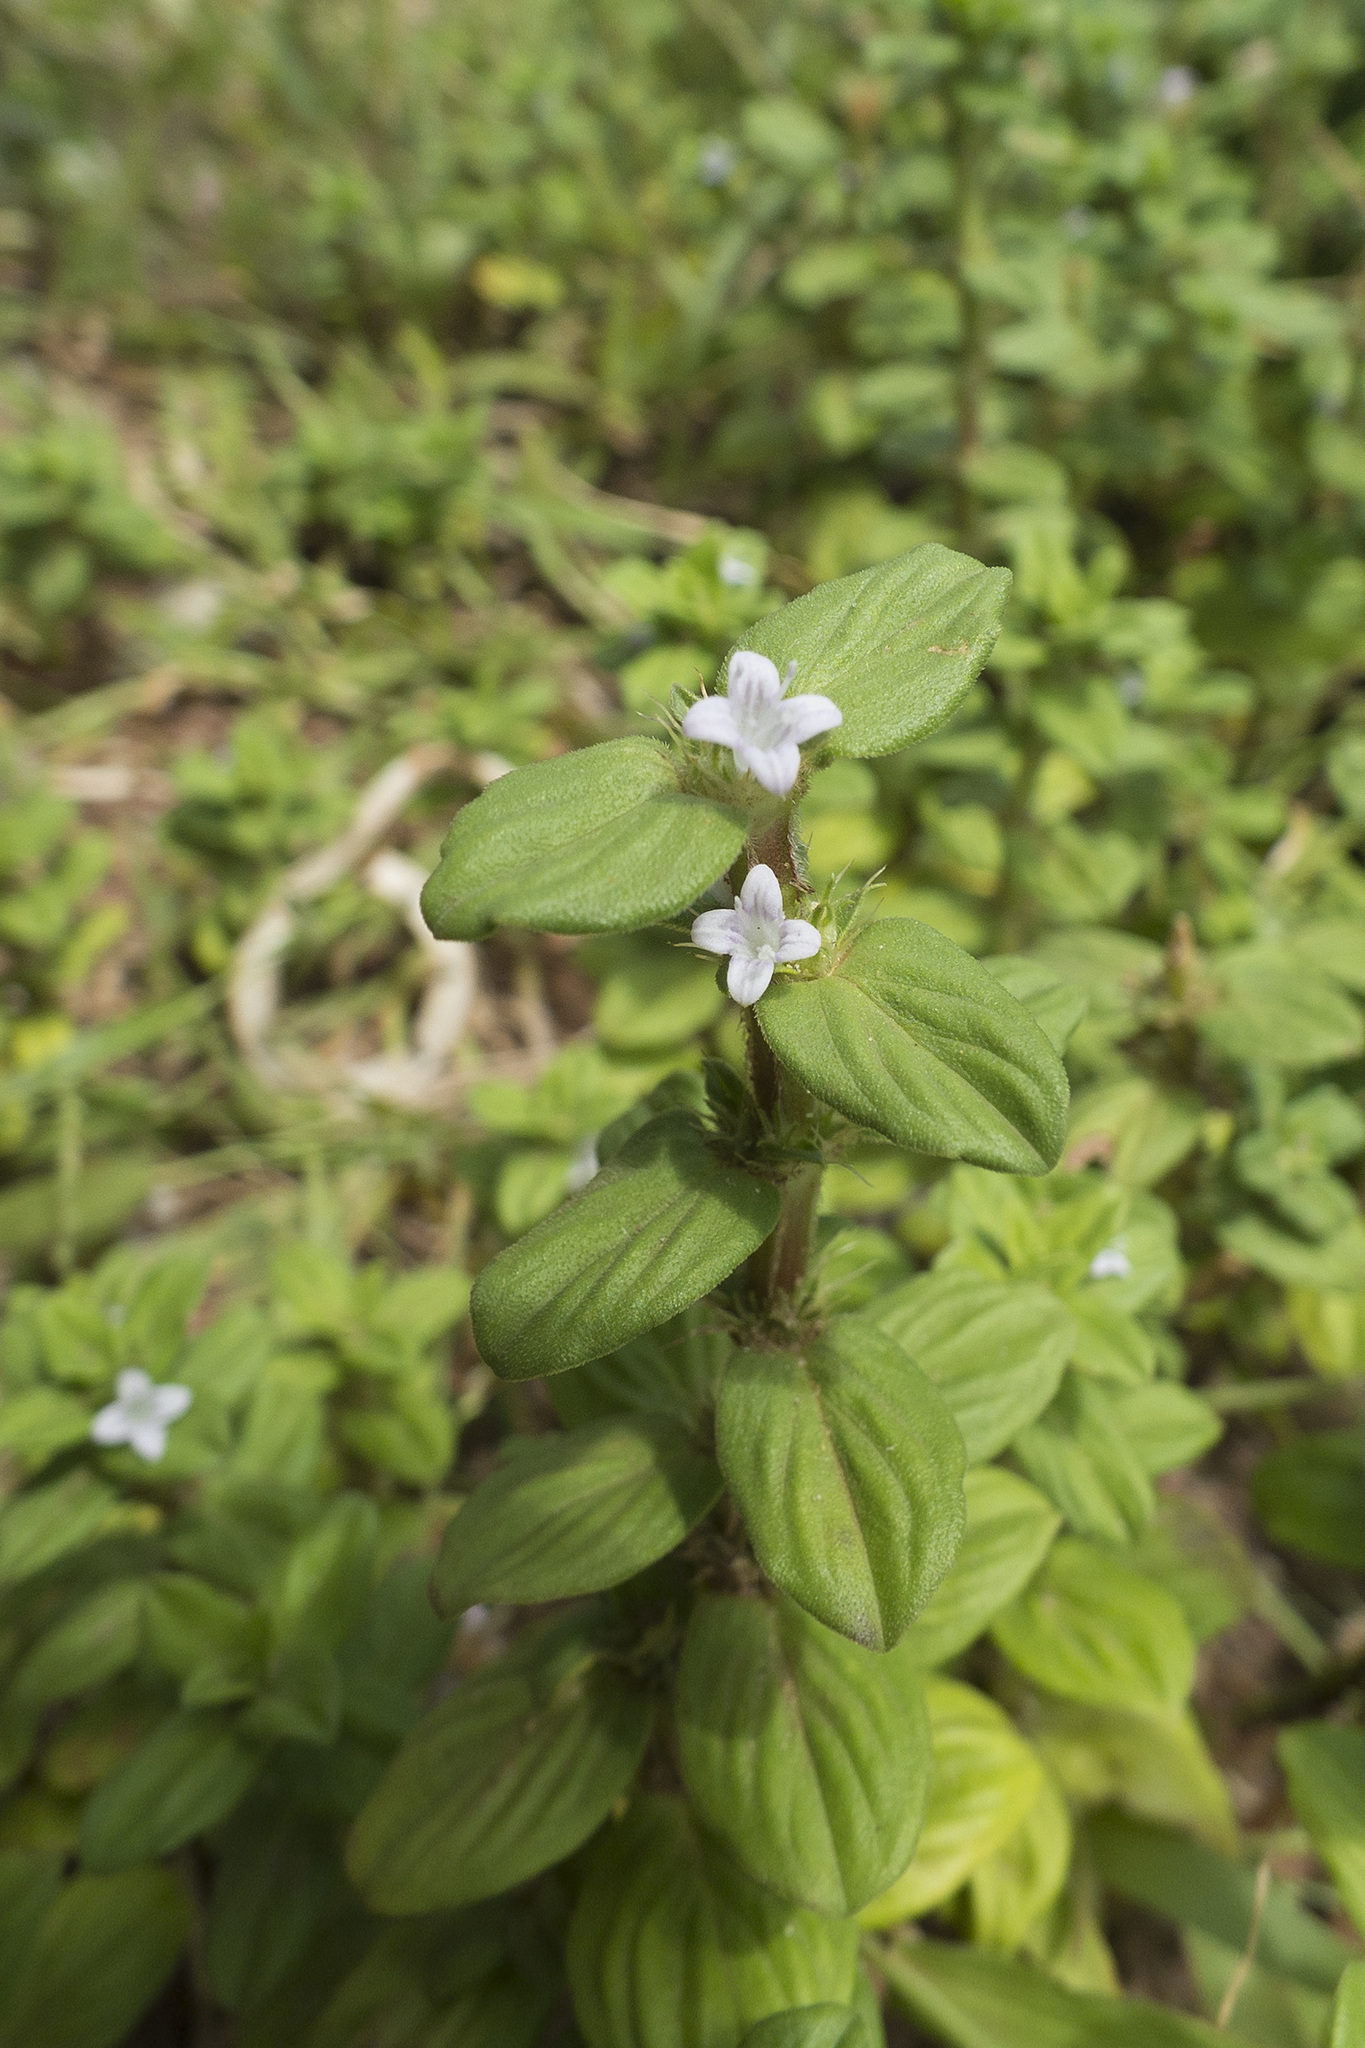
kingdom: Plantae
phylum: Tracheophyta
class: Magnoliopsida
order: Gentianales
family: Rubiaceae
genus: Spermacoce
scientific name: Spermacoce hispida
